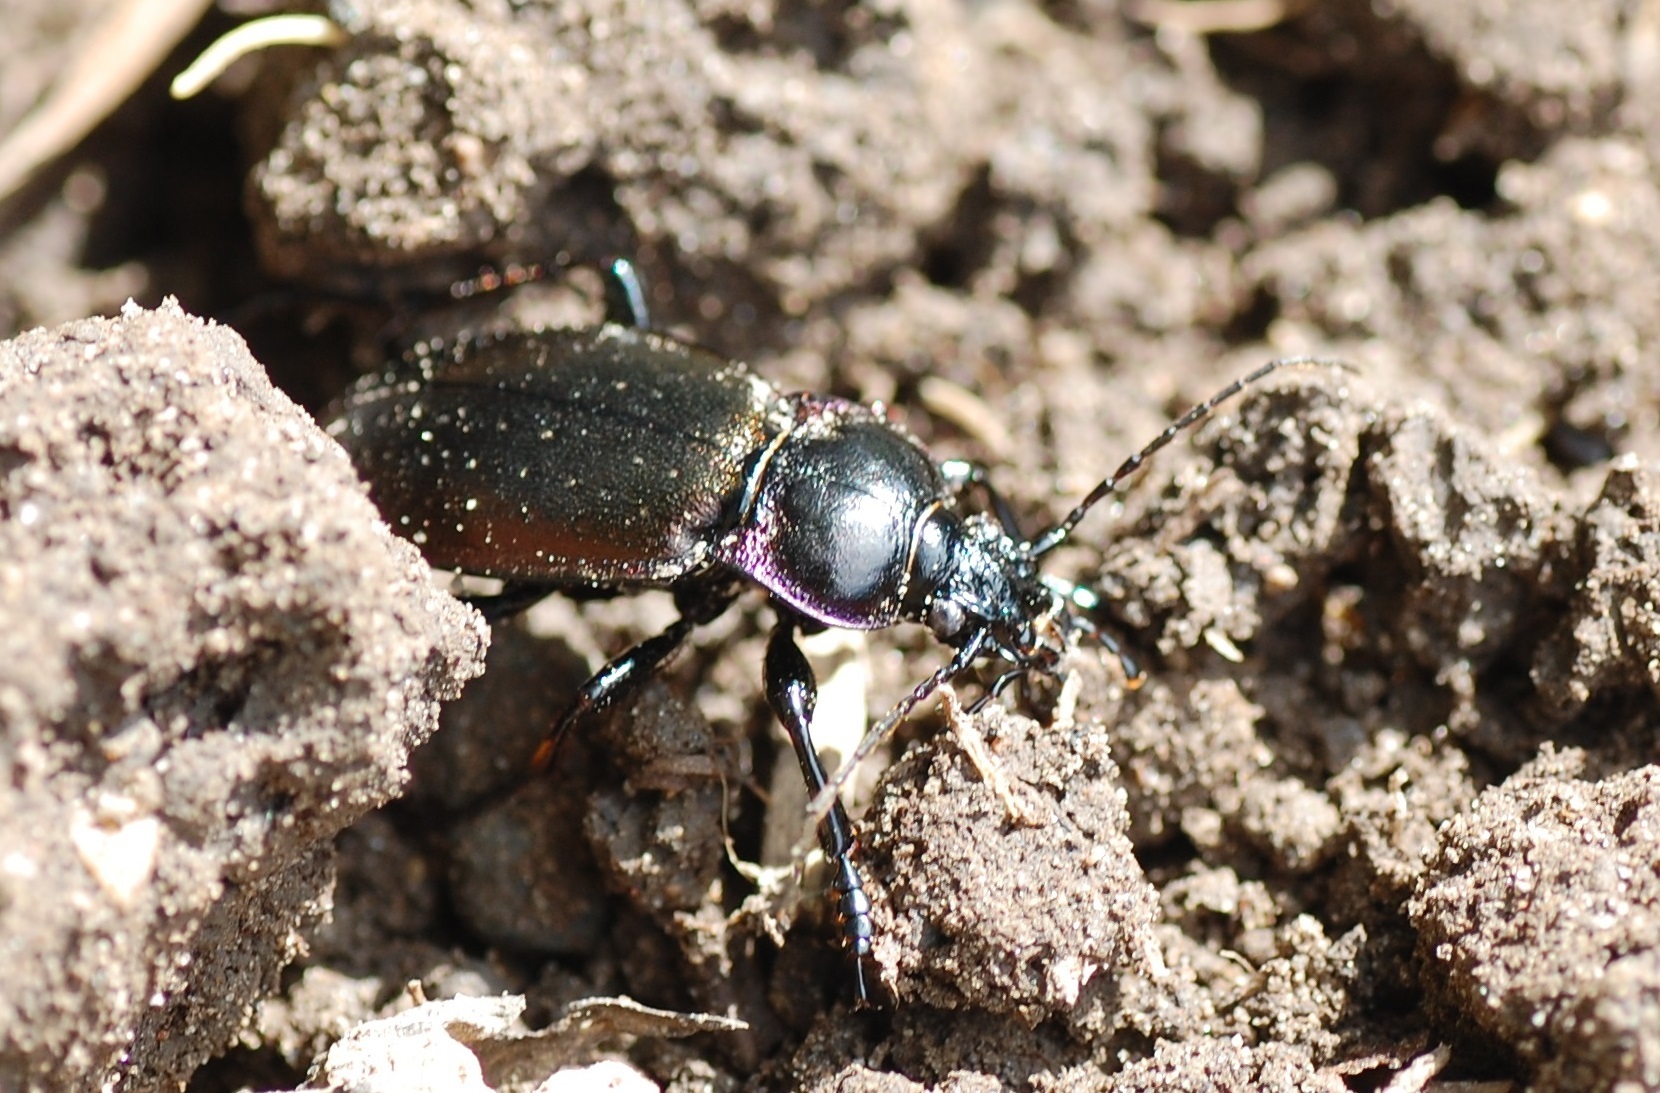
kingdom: Animalia
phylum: Arthropoda
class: Insecta
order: Coleoptera
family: Carabidae
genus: Carabus
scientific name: Carabus nemoralis
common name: European ground beetle
